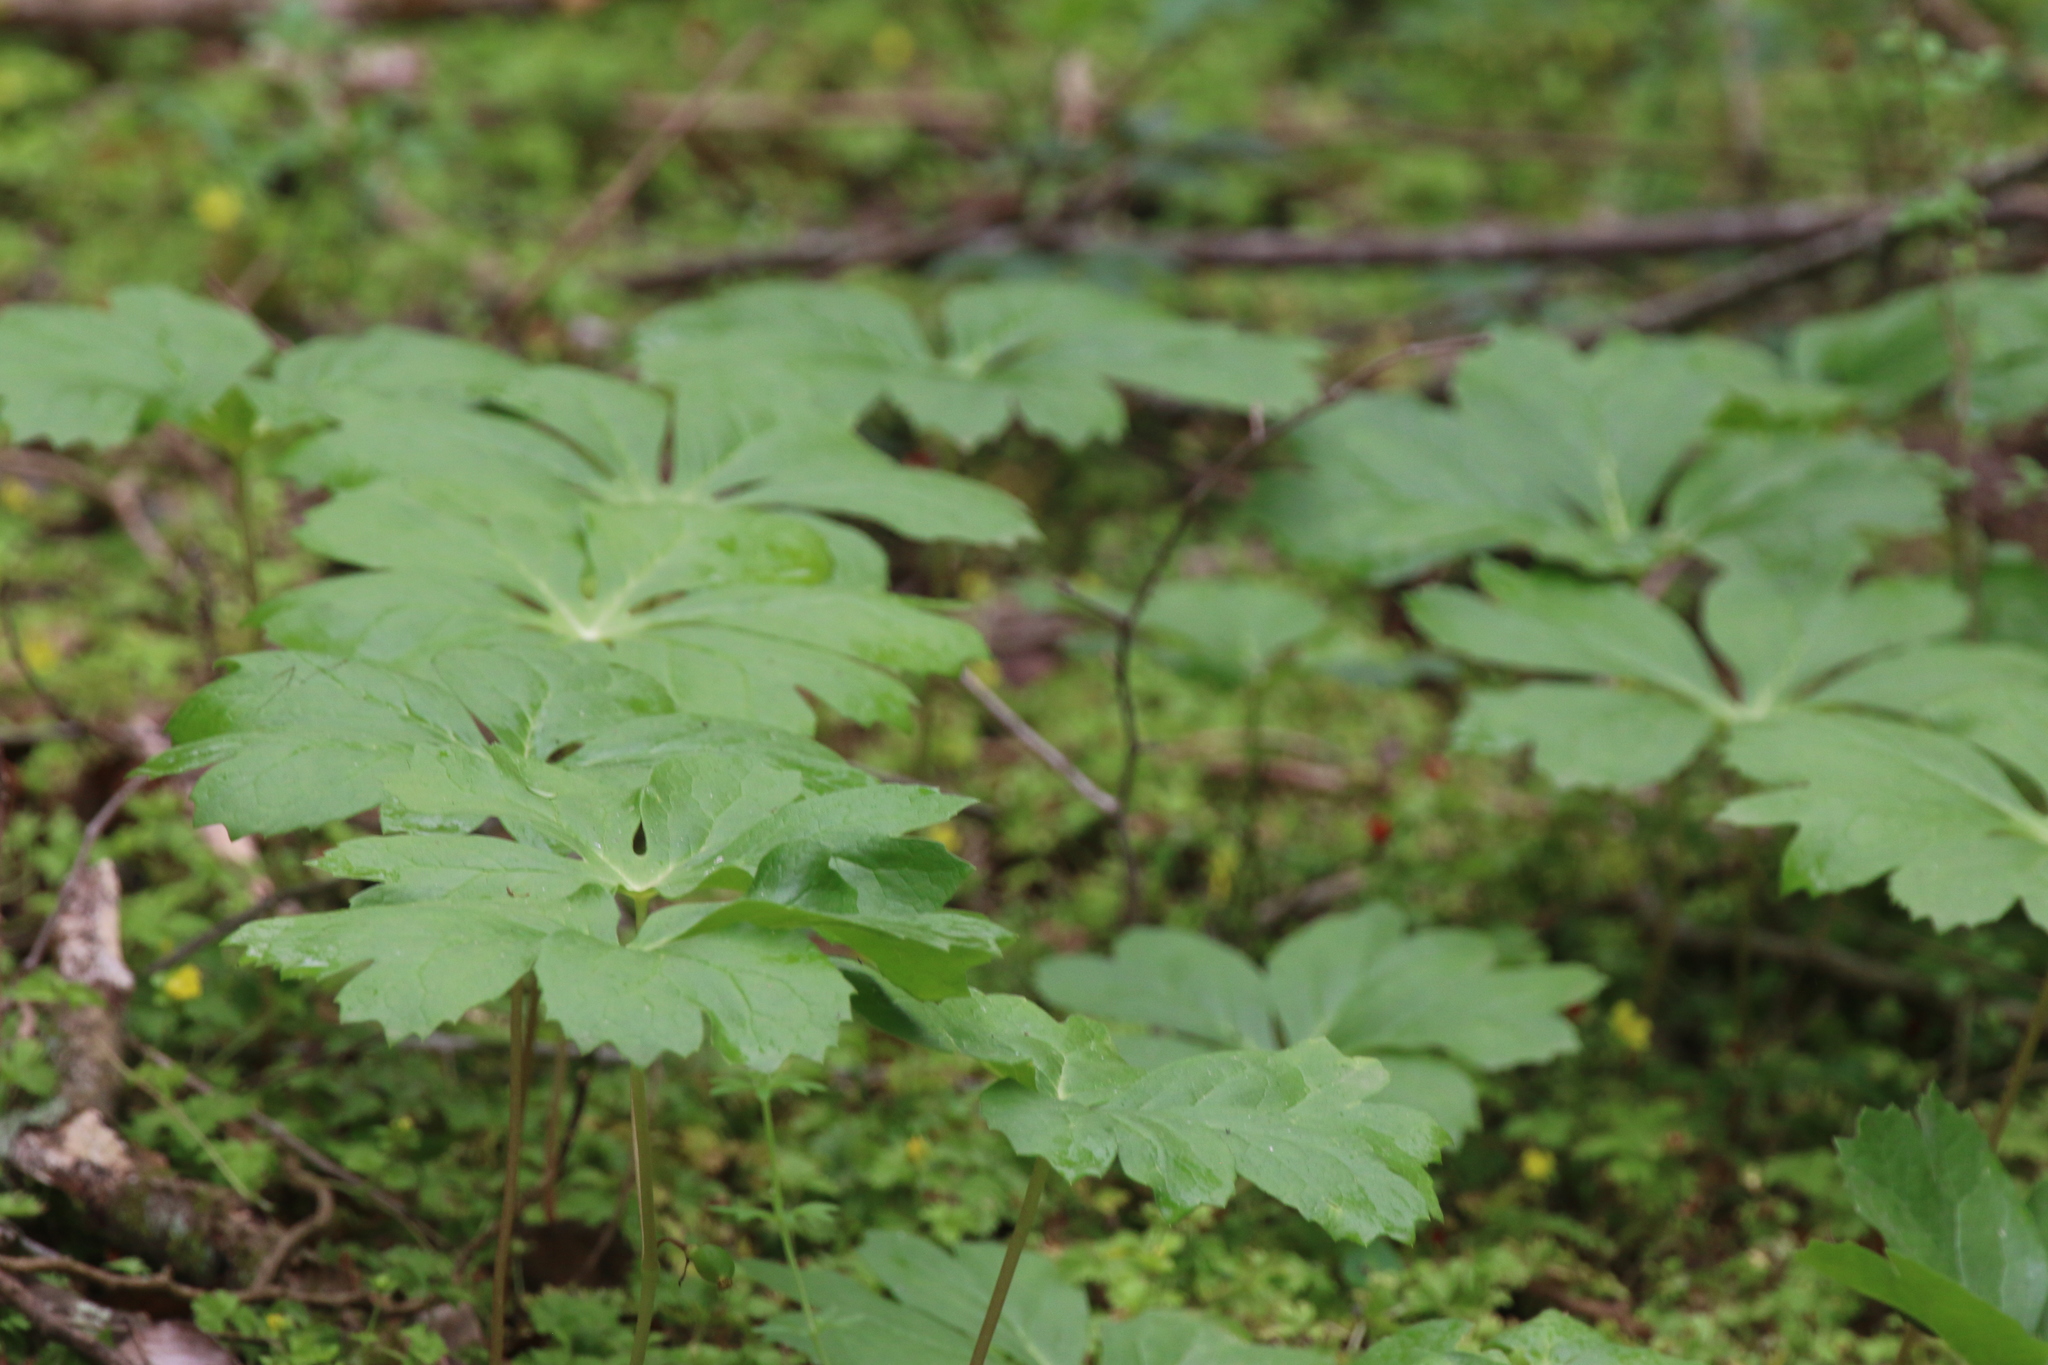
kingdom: Plantae
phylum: Tracheophyta
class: Magnoliopsida
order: Ranunculales
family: Berberidaceae
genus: Podophyllum
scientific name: Podophyllum peltatum
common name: Wild mandrake
